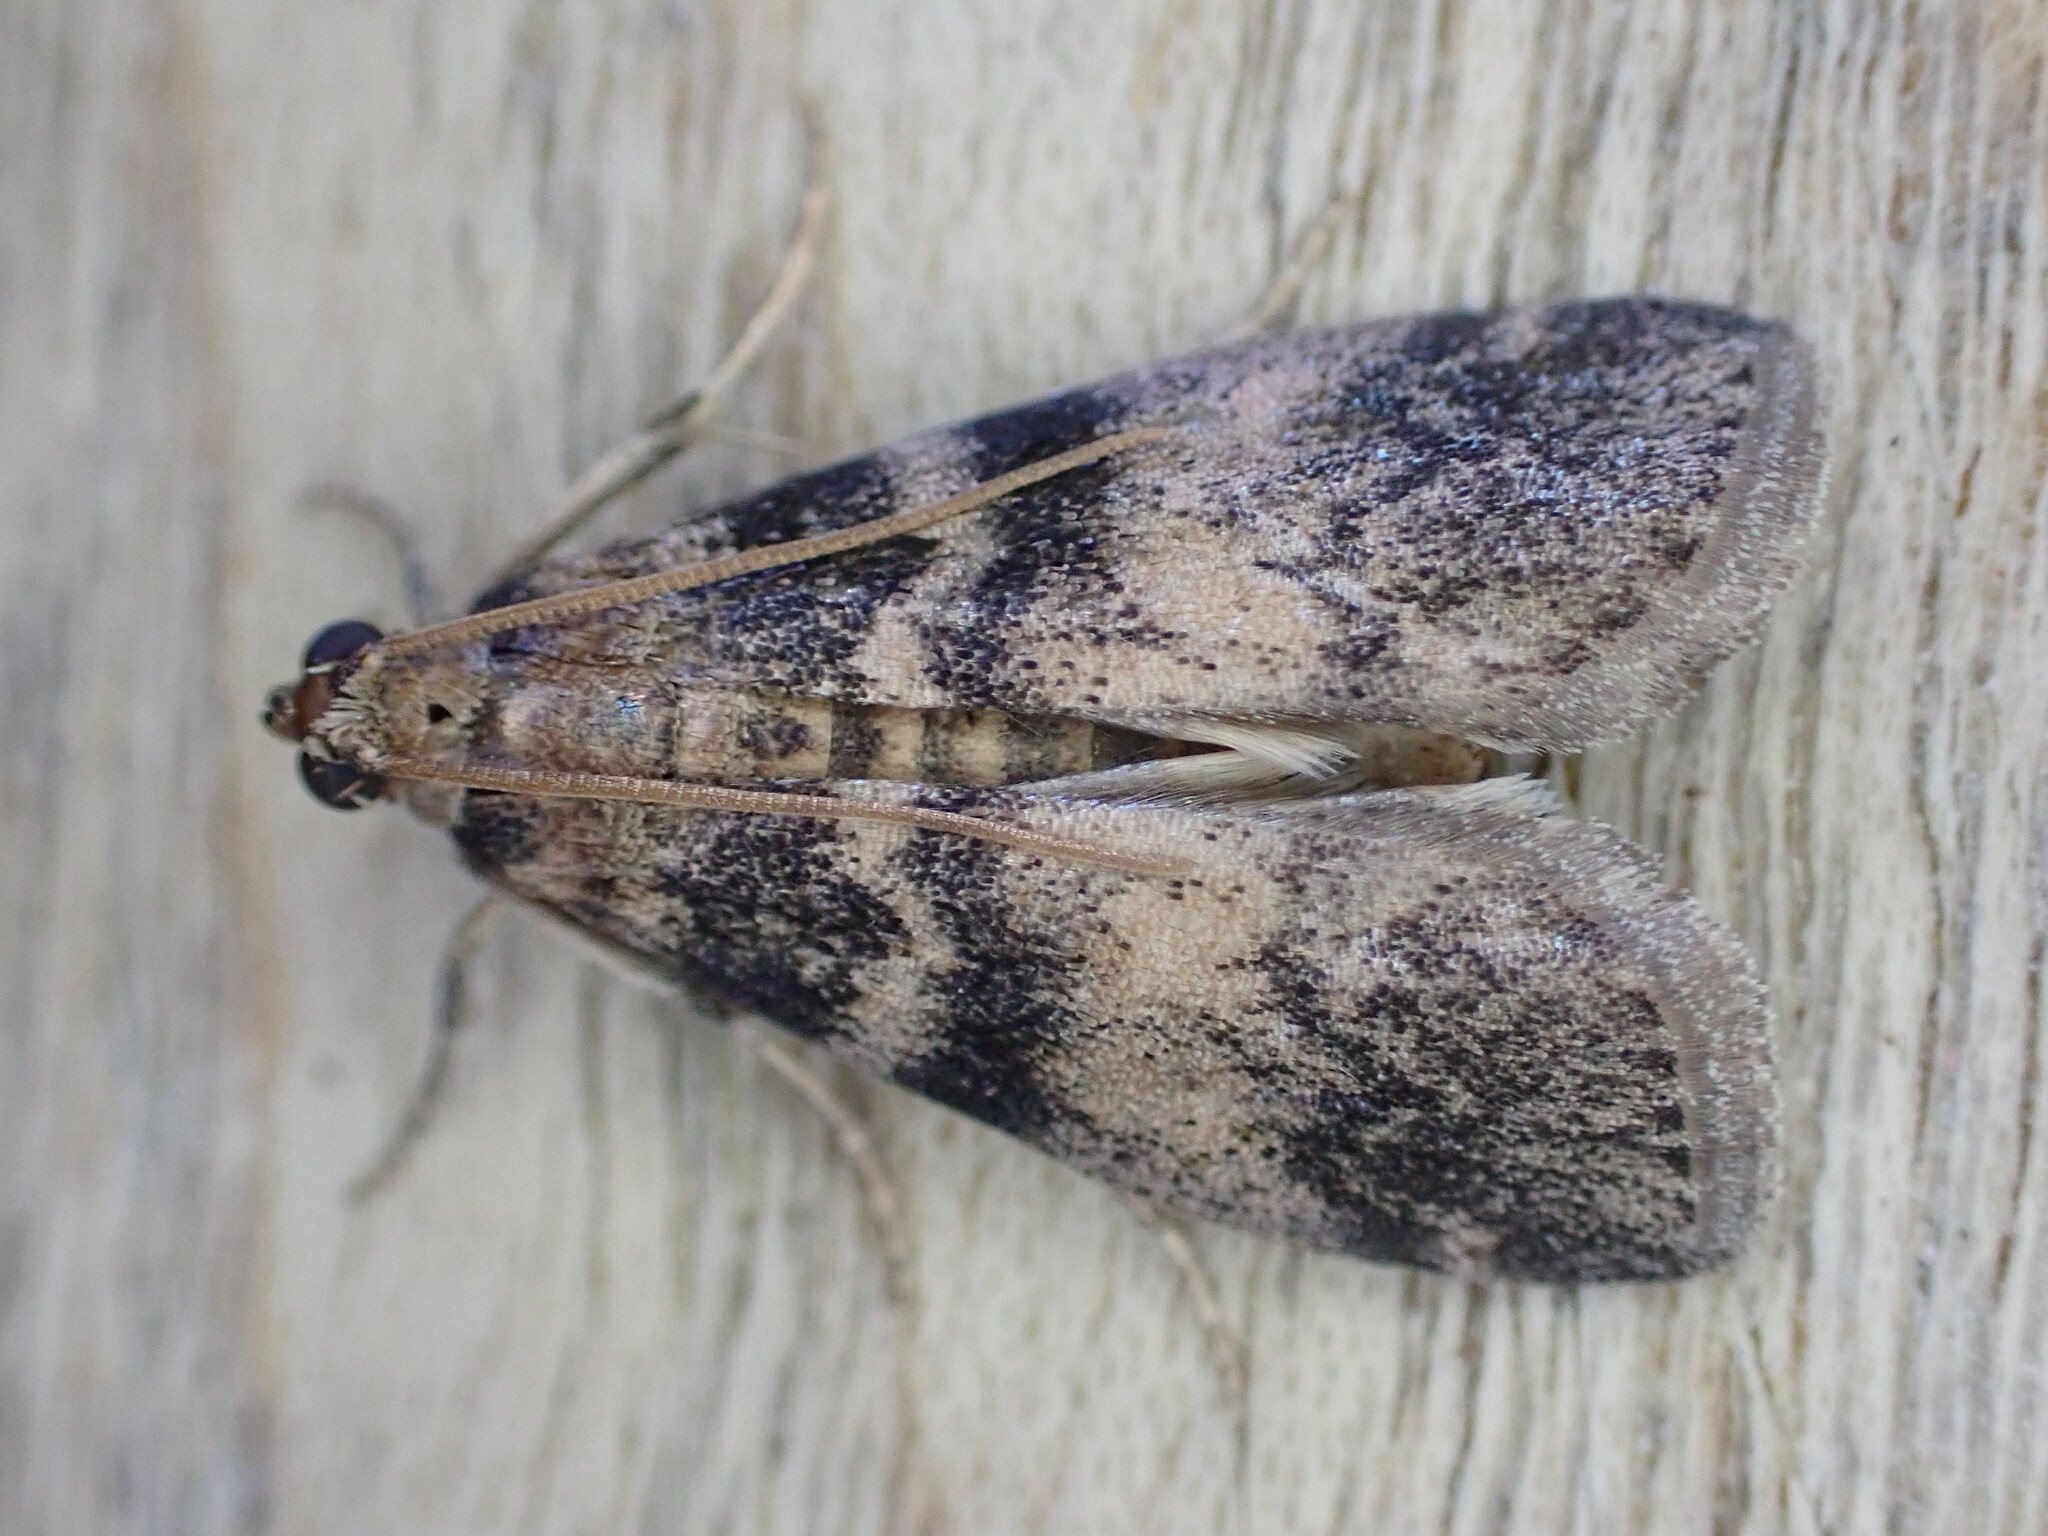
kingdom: Animalia
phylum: Arthropoda
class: Insecta
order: Lepidoptera
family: Pyralidae
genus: Euzophera
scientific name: Euzophera pinguis
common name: Ash-bark knot-horn
